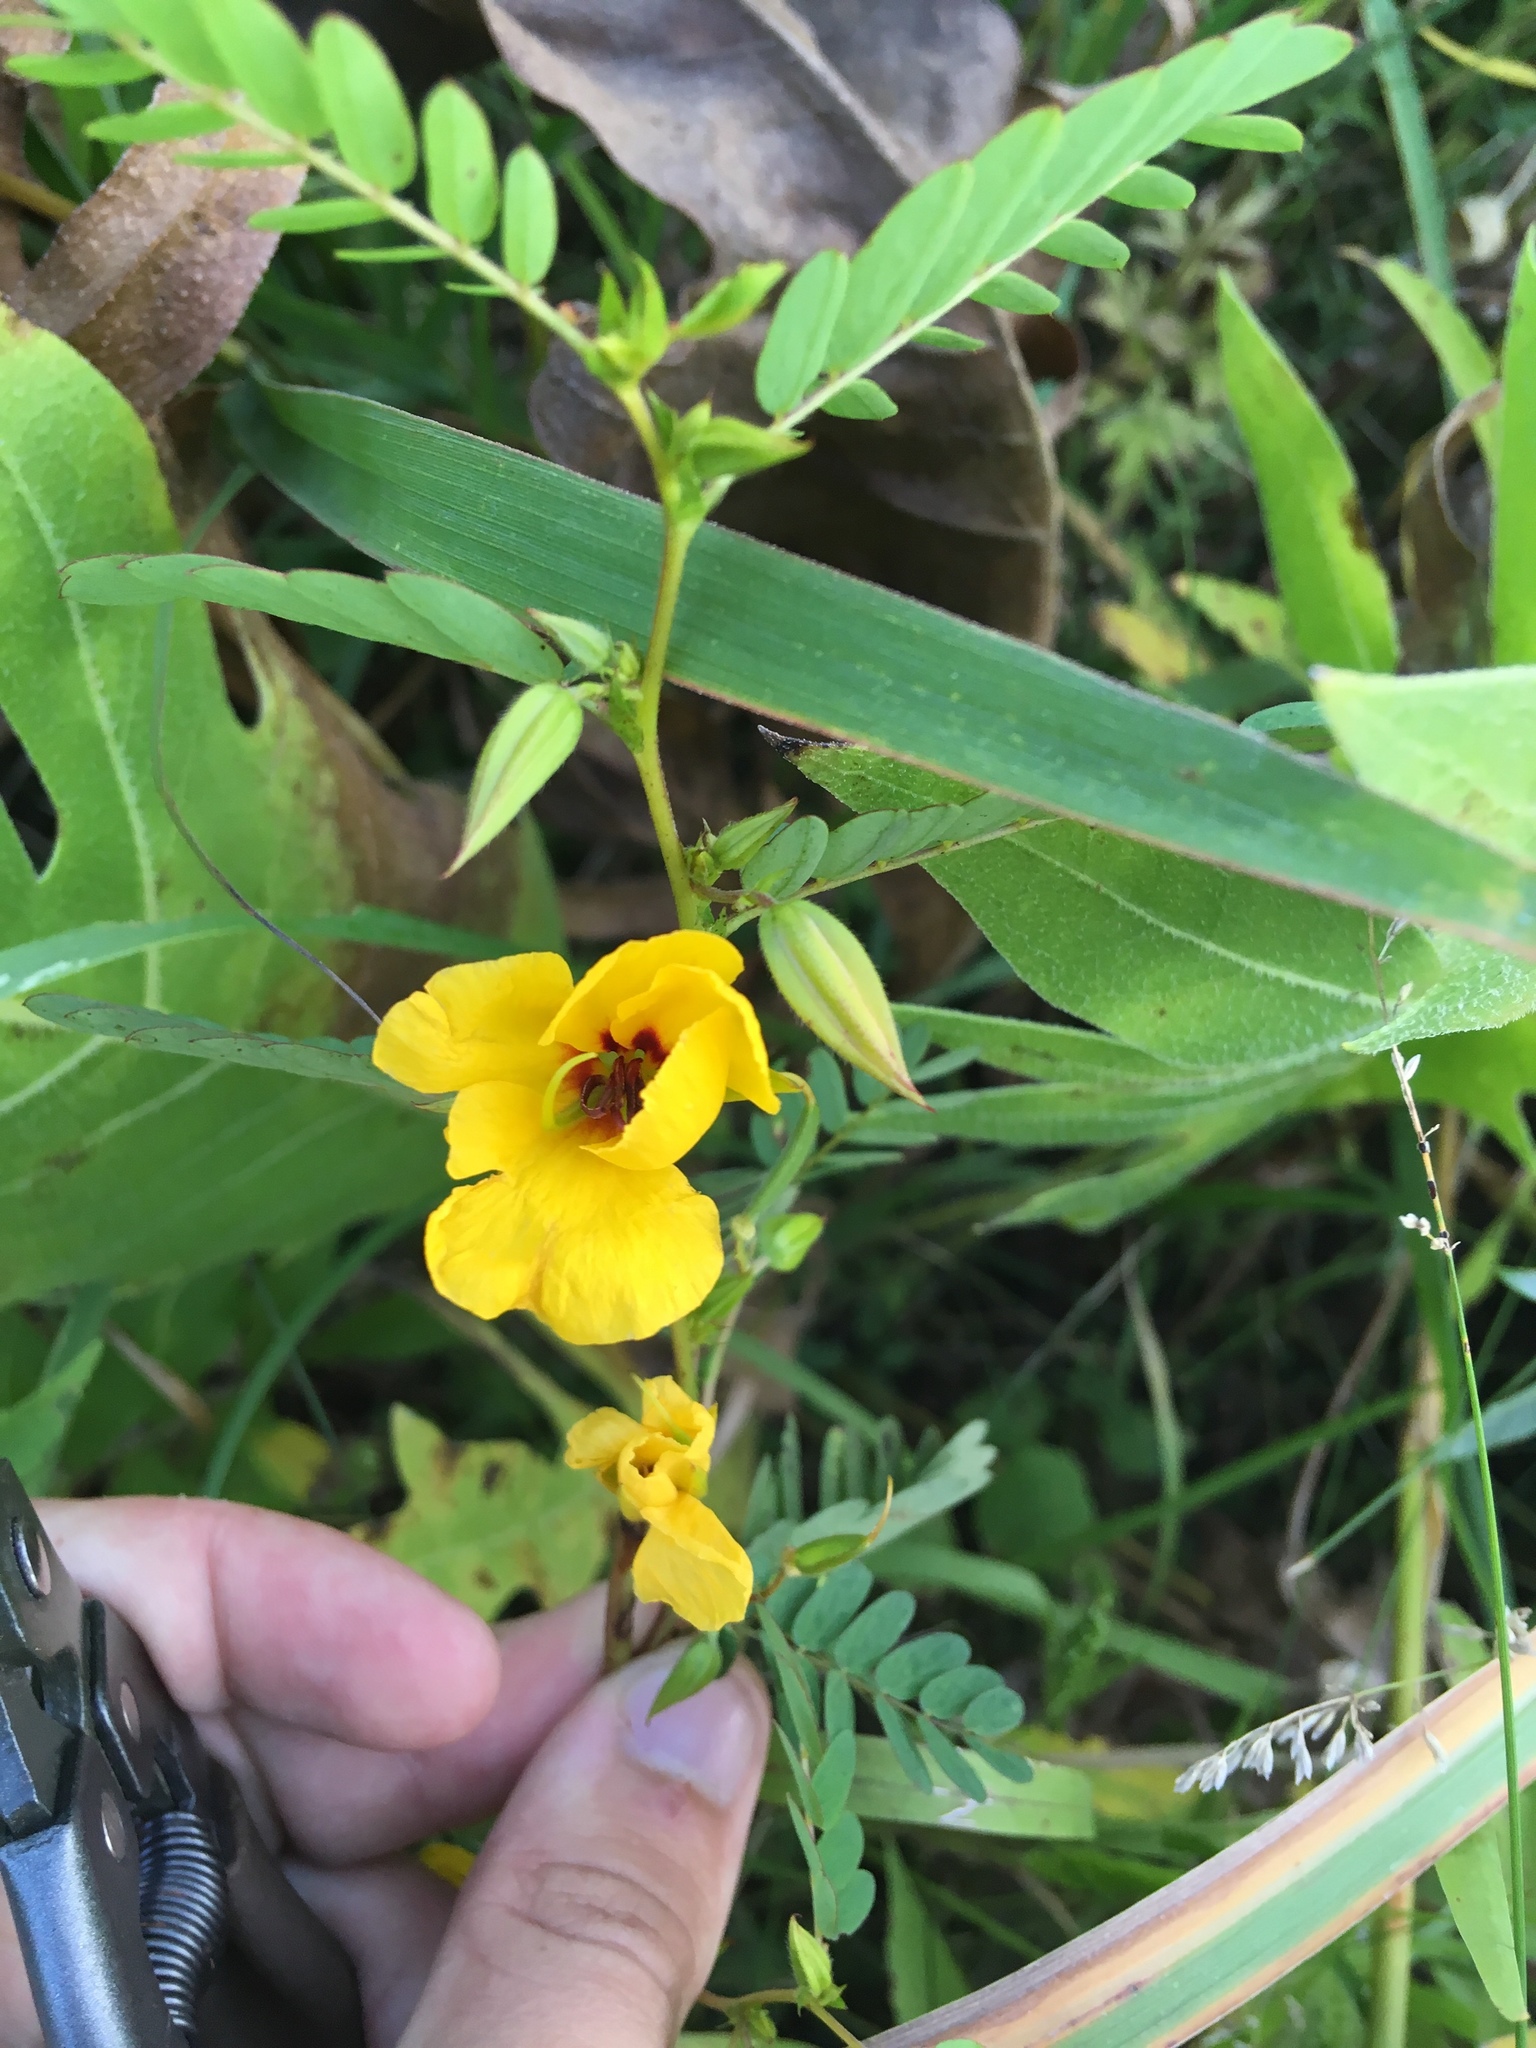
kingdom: Plantae
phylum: Tracheophyta
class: Magnoliopsida
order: Fabales
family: Fabaceae
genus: Chamaecrista
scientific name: Chamaecrista fasciculata
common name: Golden cassia
